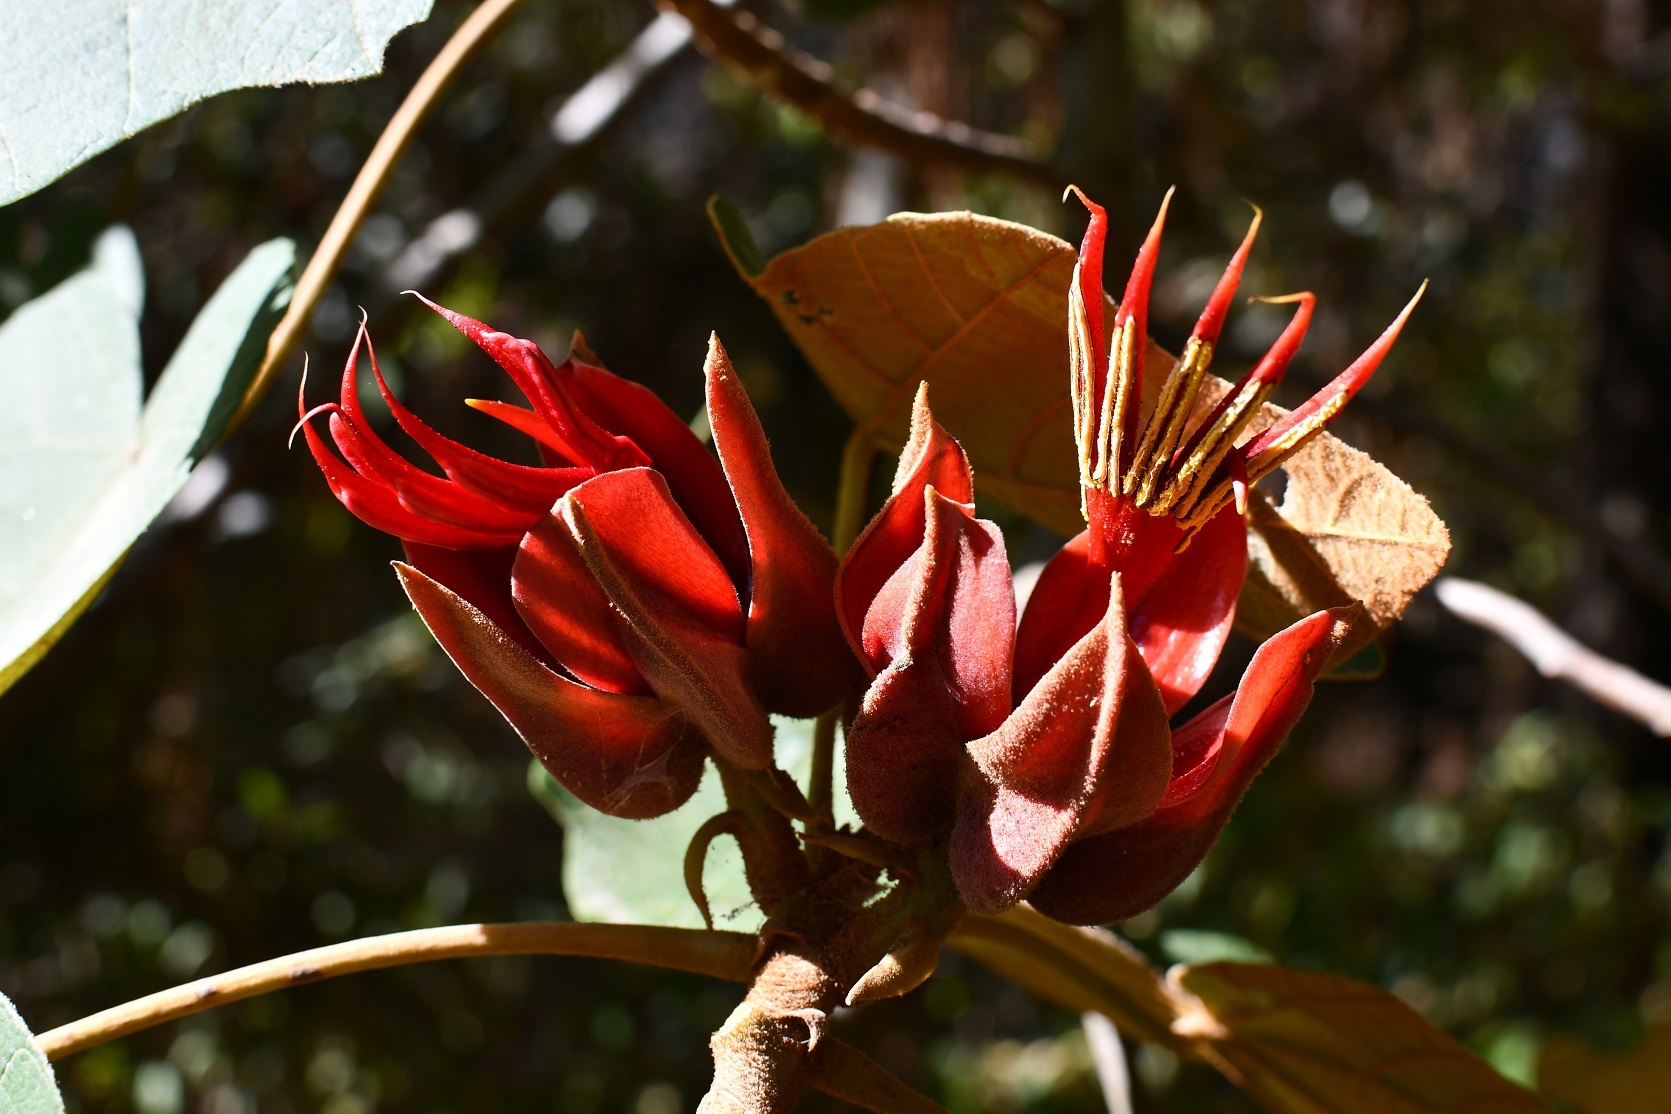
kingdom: Plantae
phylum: Tracheophyta
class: Magnoliopsida
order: Malvales
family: Malvaceae
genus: Chiranthodendron
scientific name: Chiranthodendron pentadactylon
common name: Mexican-hat-plant
